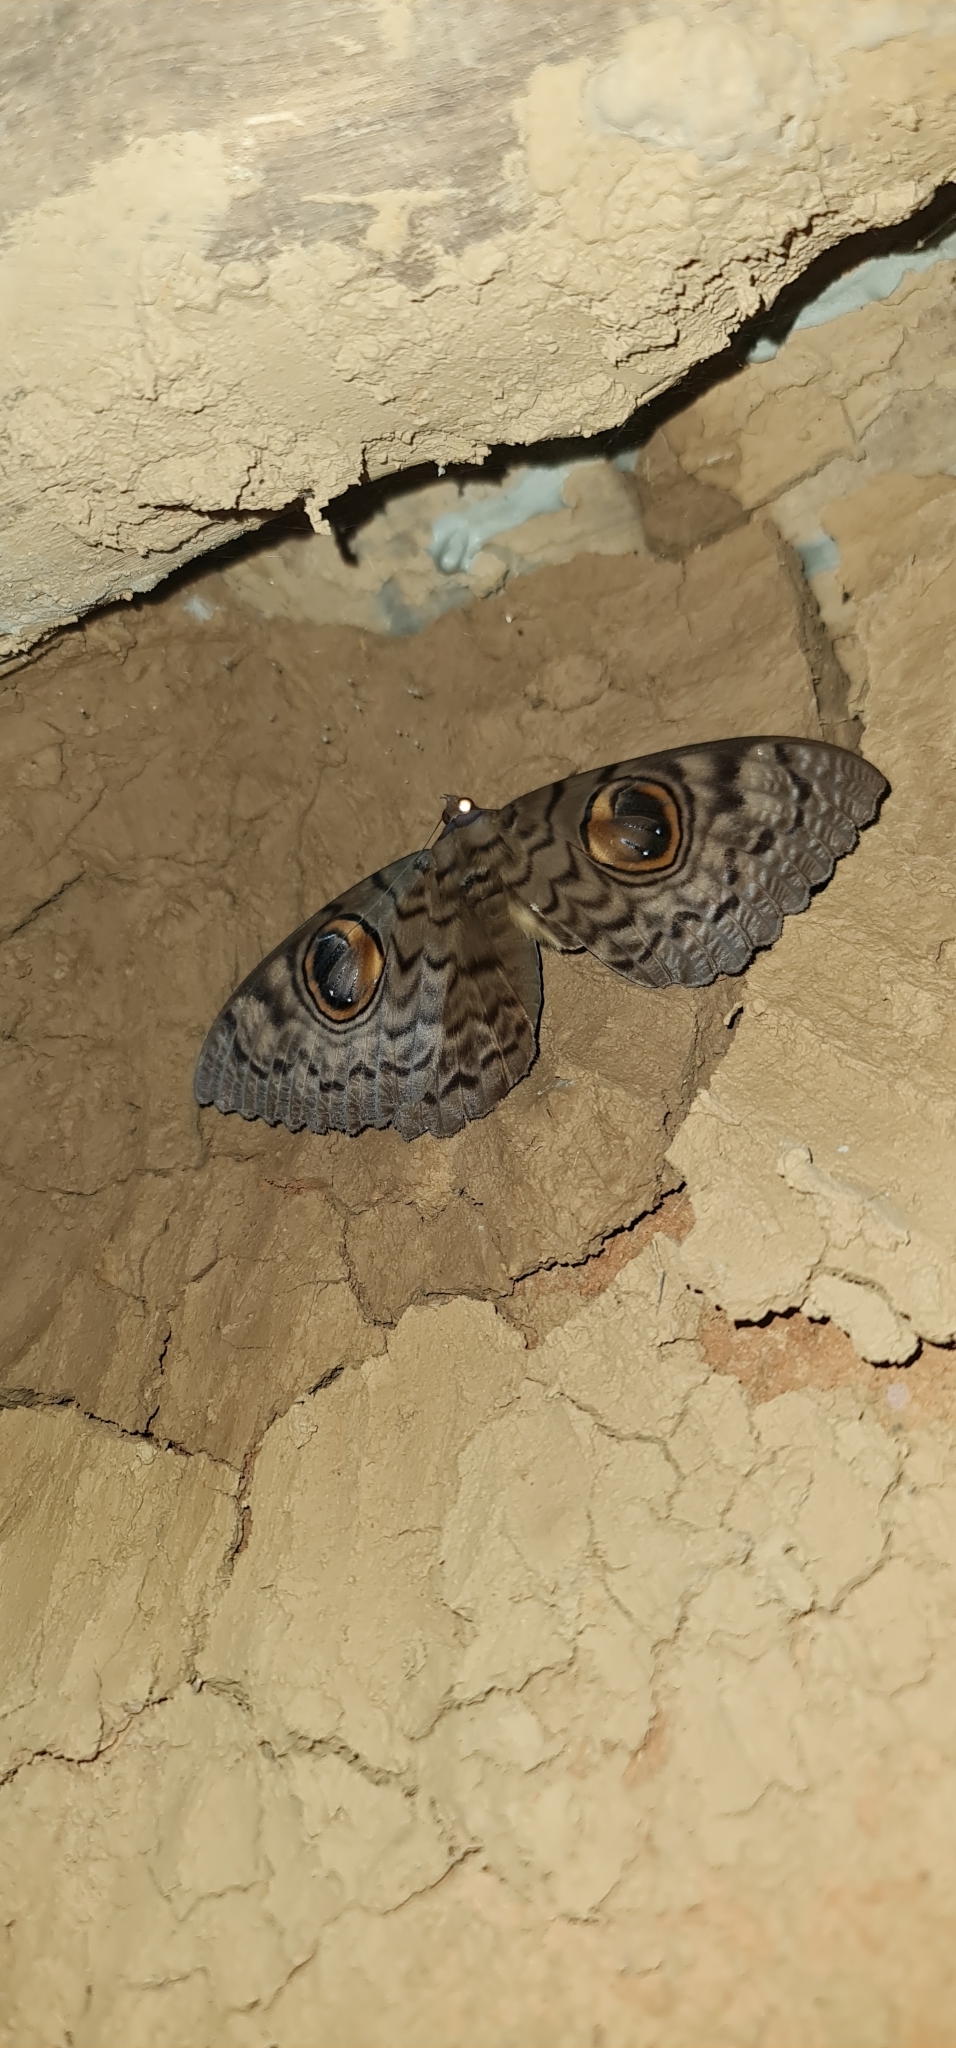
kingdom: Animalia
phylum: Arthropoda
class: Insecta
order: Lepidoptera
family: Erebidae
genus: Erebus
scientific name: Erebus macrops
